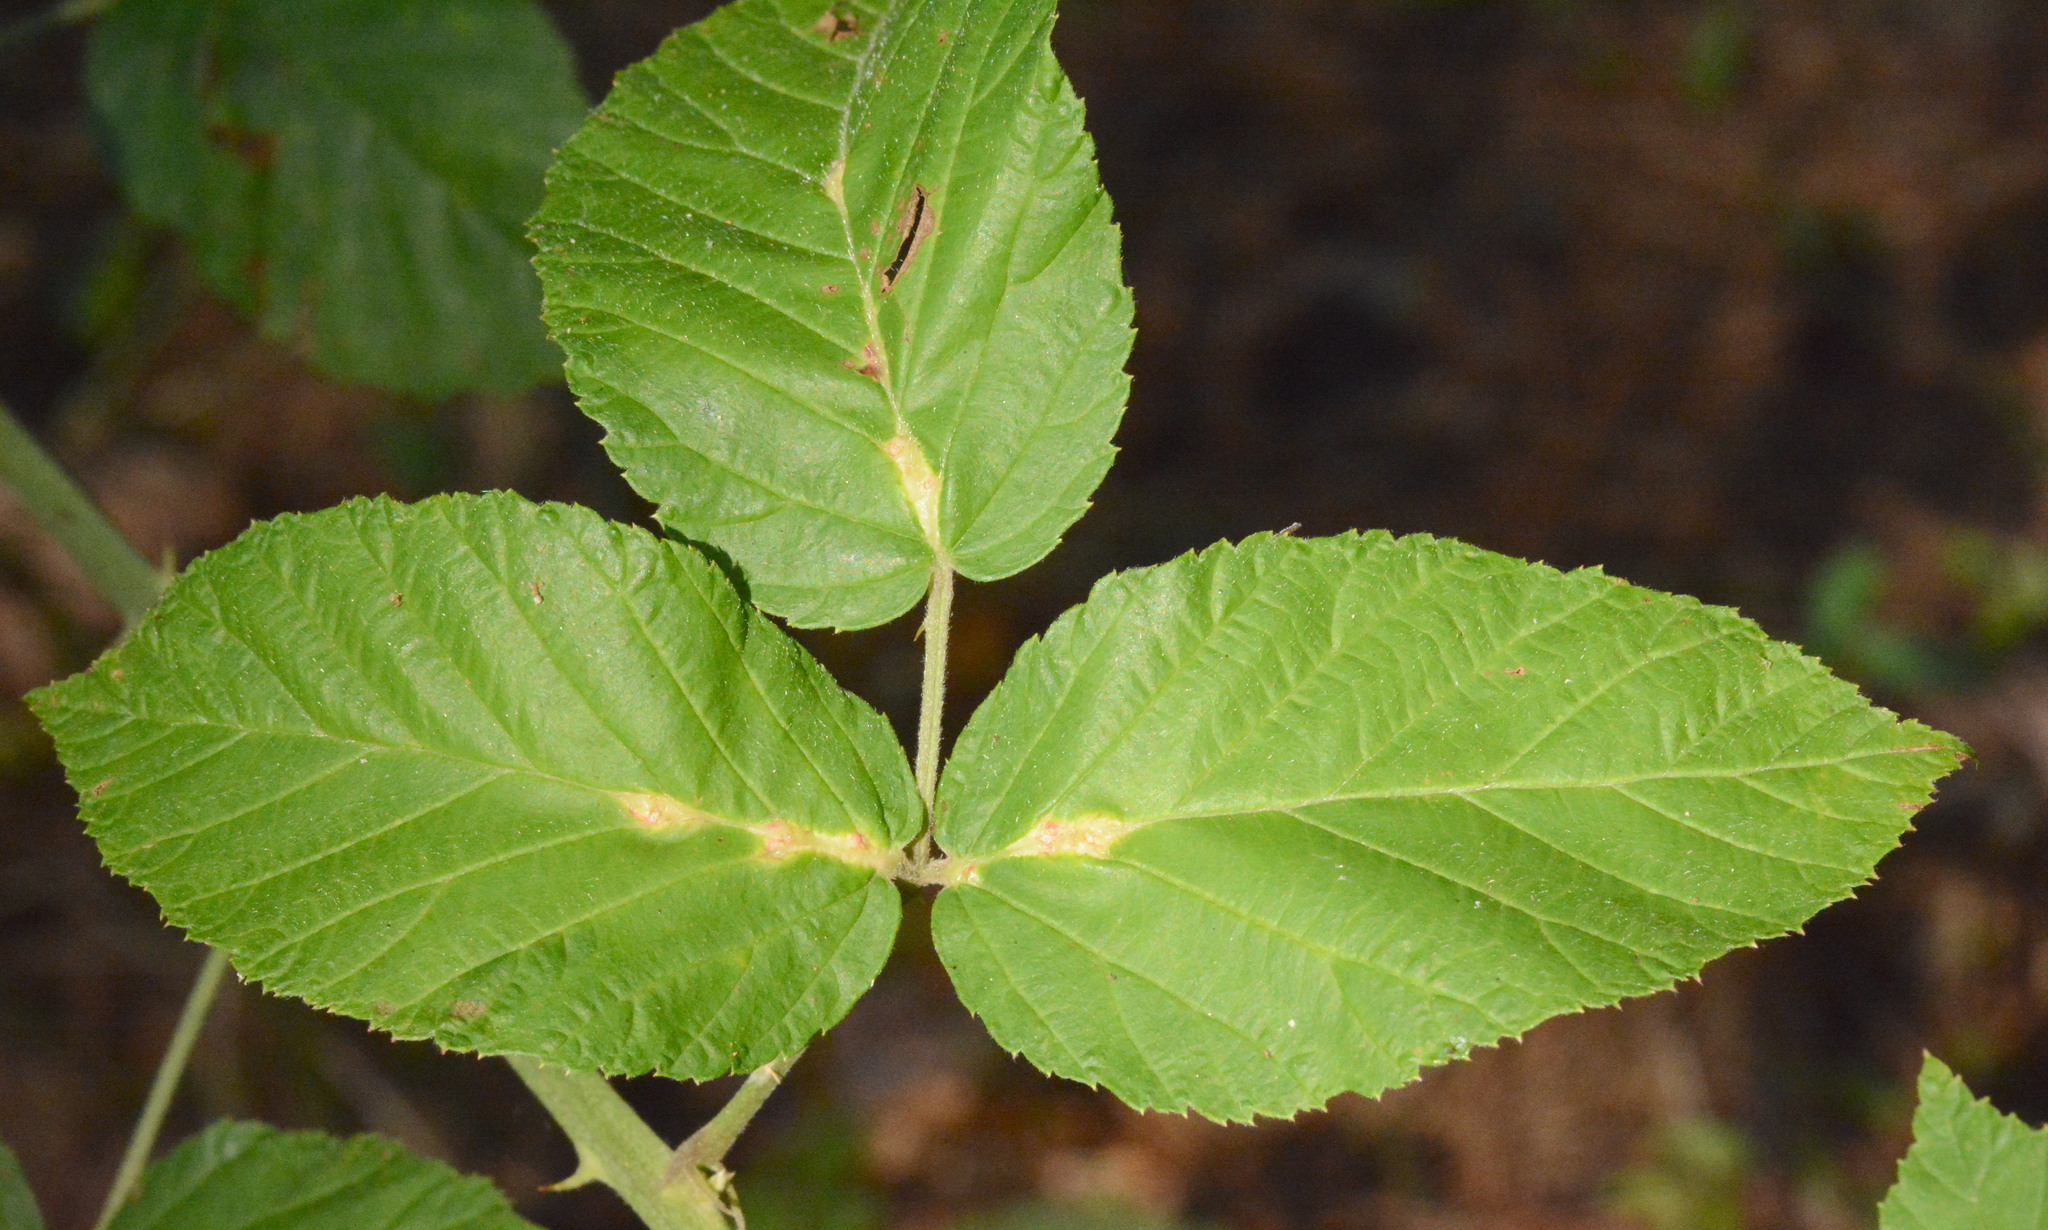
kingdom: Animalia
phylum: Arthropoda
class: Insecta
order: Diptera
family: Cecidomyiidae
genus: Neolasioptera
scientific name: Neolasioptera farinosa
